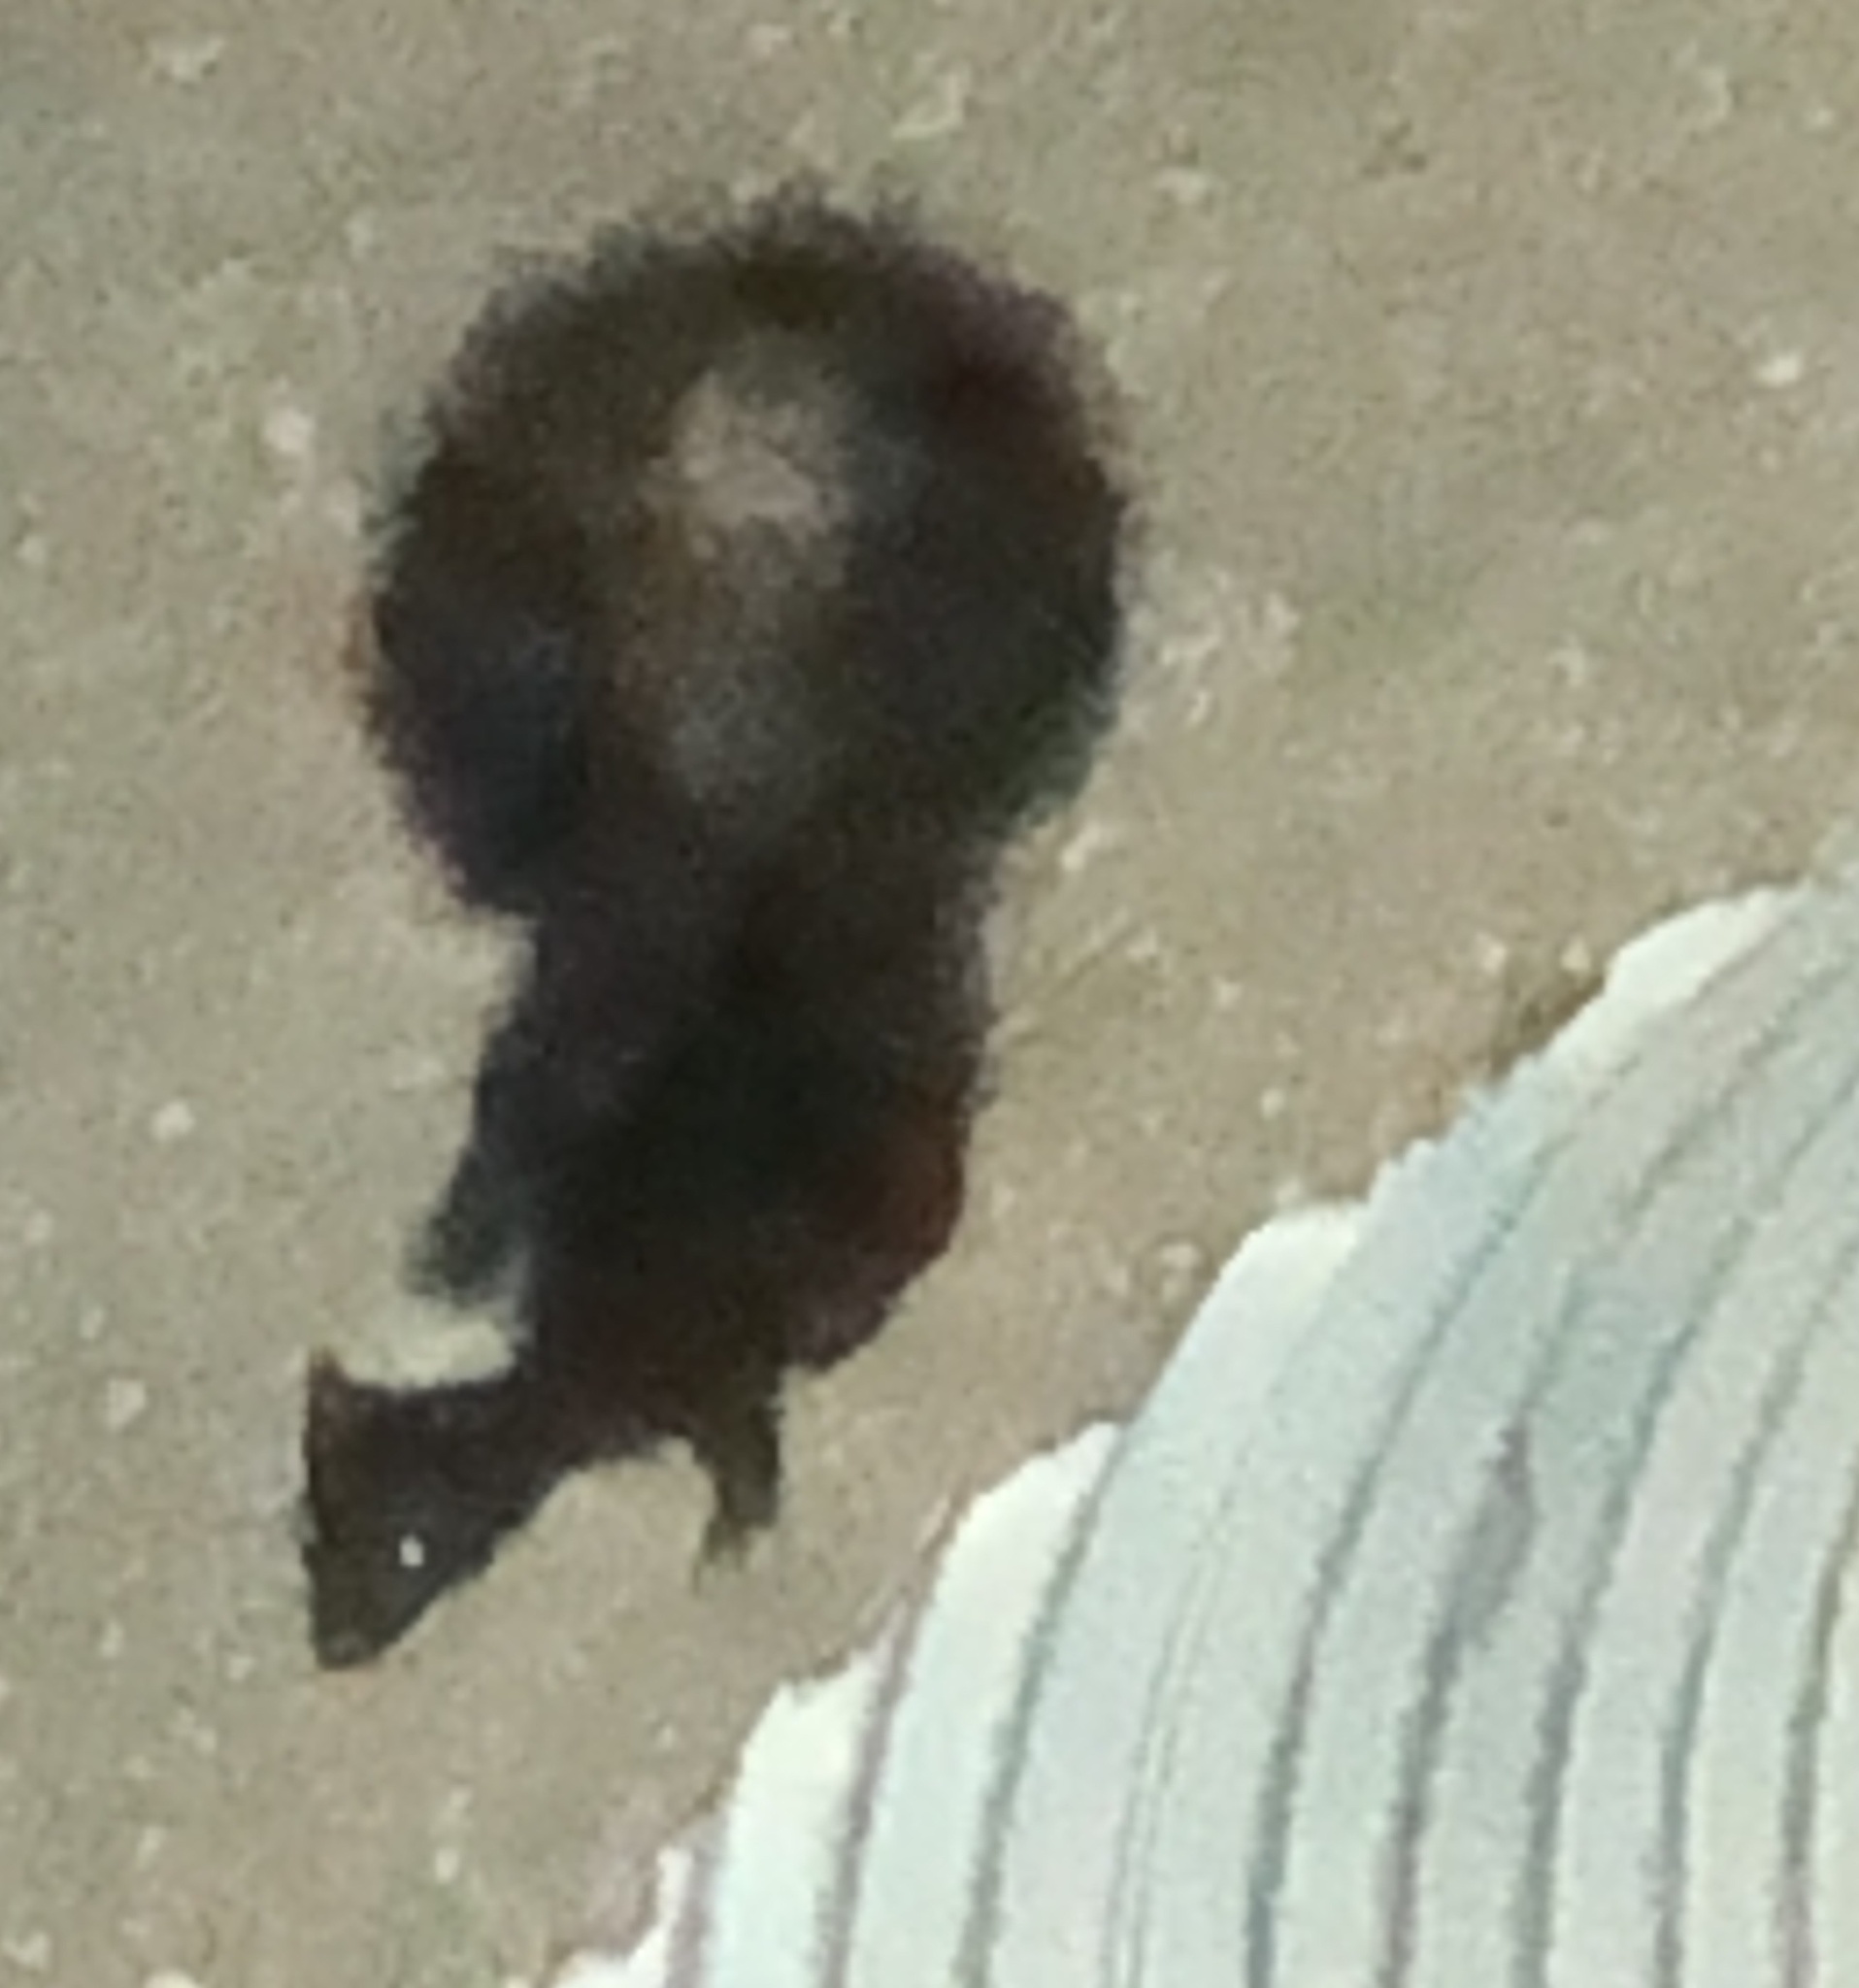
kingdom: Animalia
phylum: Chordata
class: Mammalia
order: Carnivora
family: Mephitidae
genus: Mephitis
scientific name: Mephitis mephitis
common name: Striped skunk
